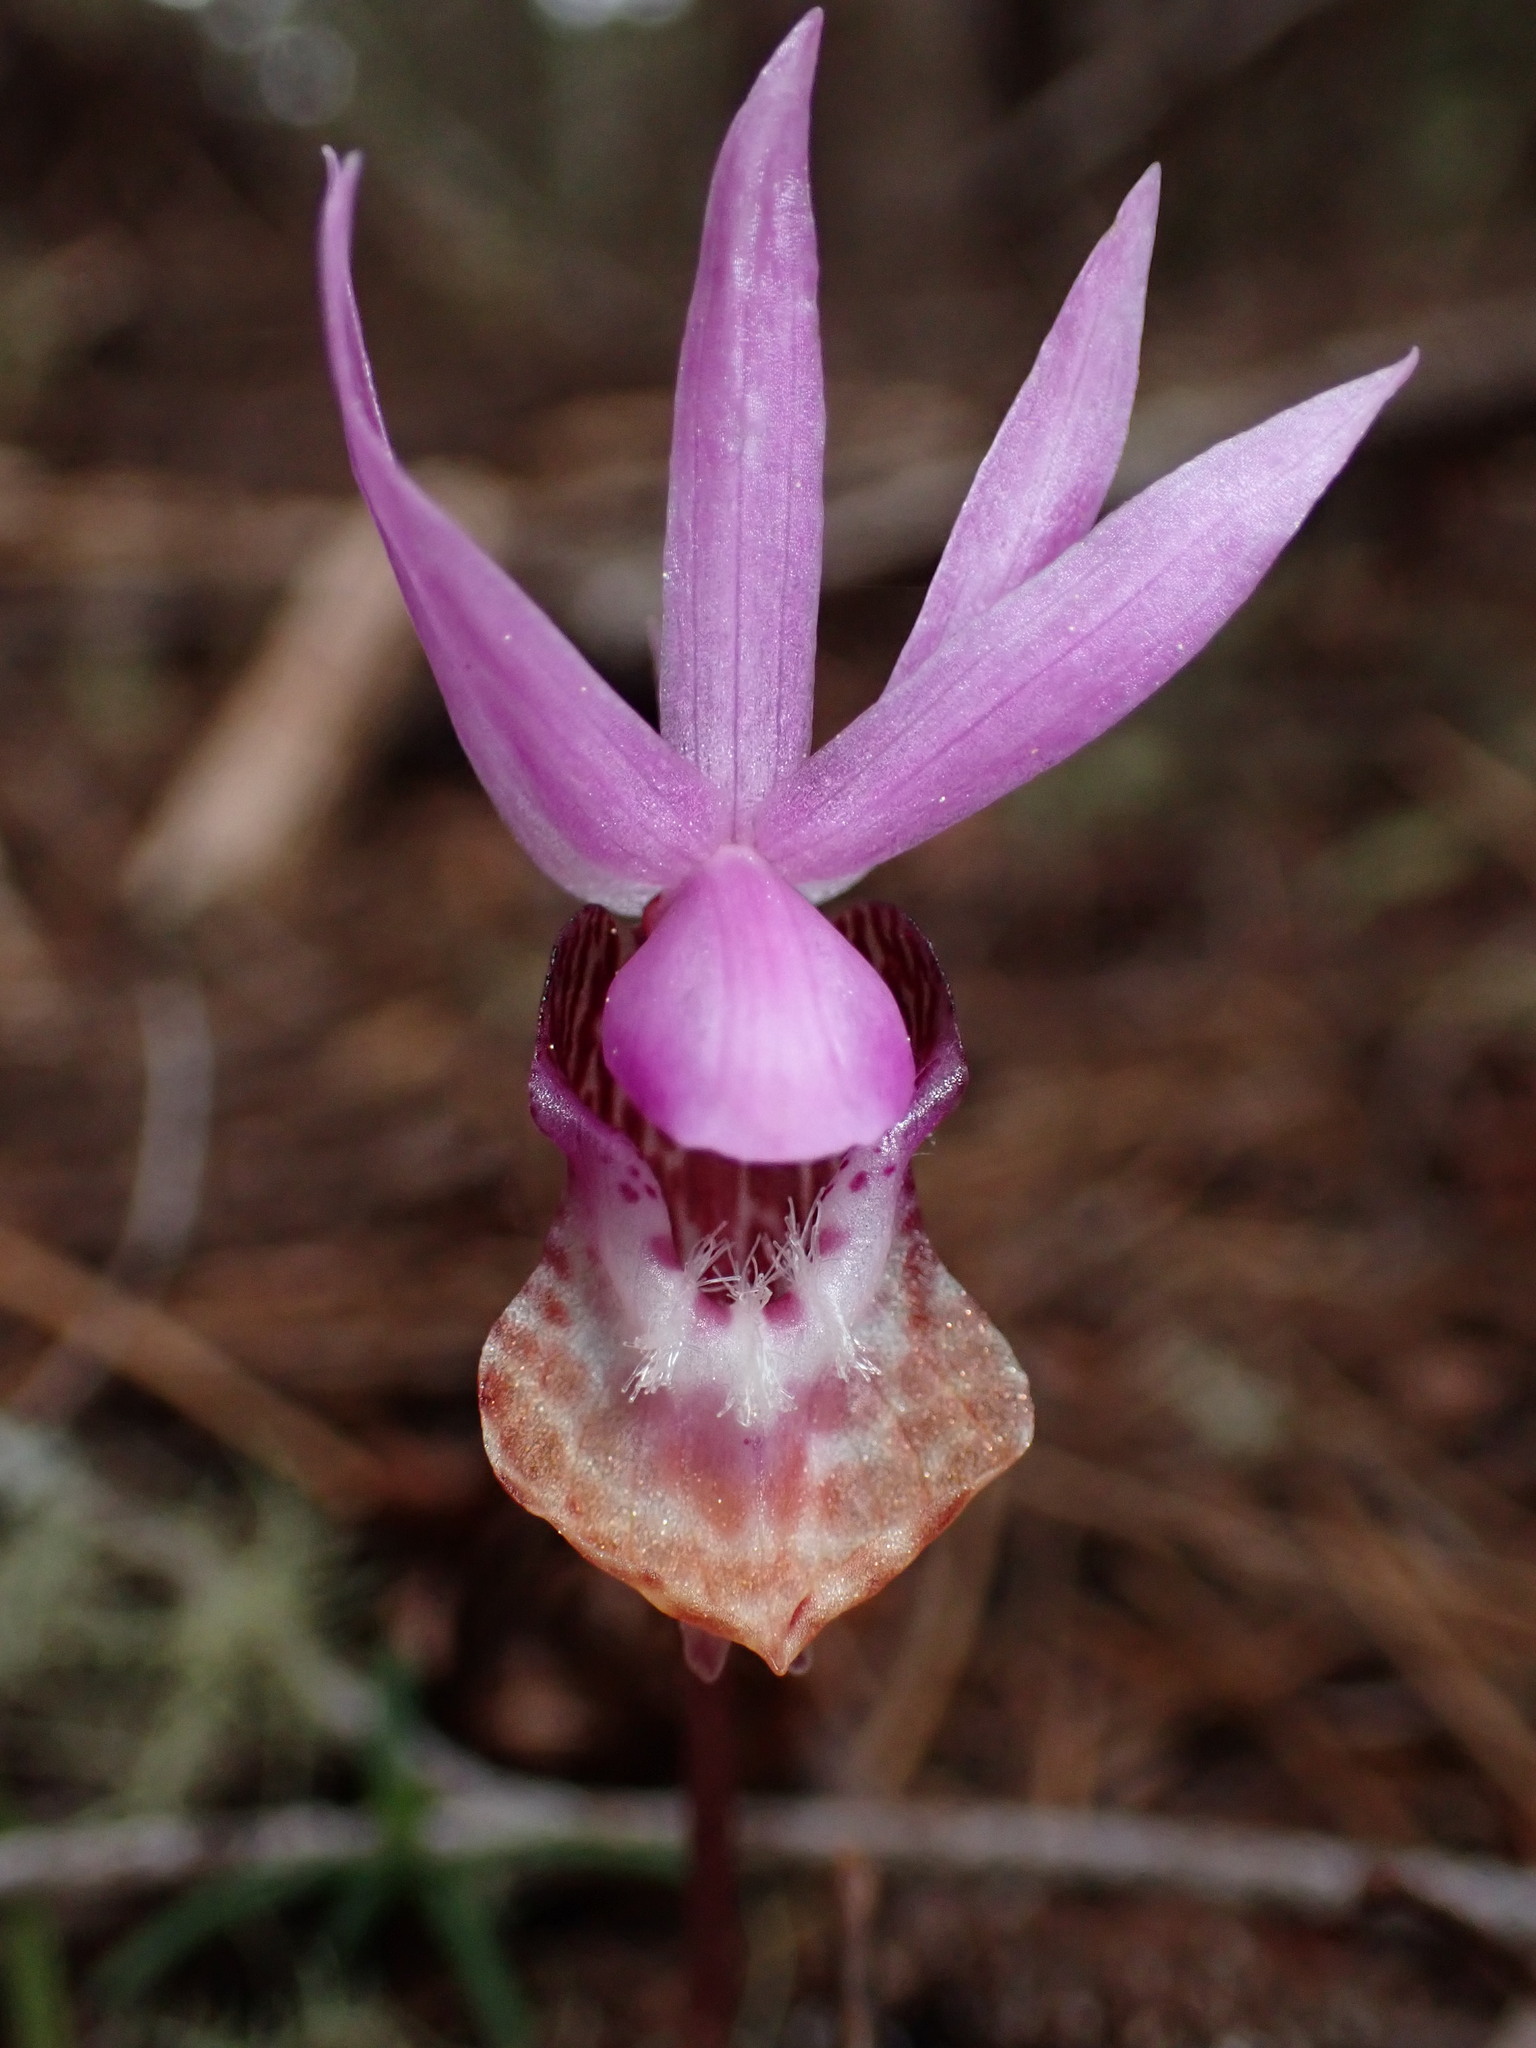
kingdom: Plantae
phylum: Tracheophyta
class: Liliopsida
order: Asparagales
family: Orchidaceae
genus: Calypso
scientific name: Calypso bulbosa
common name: Calypso
